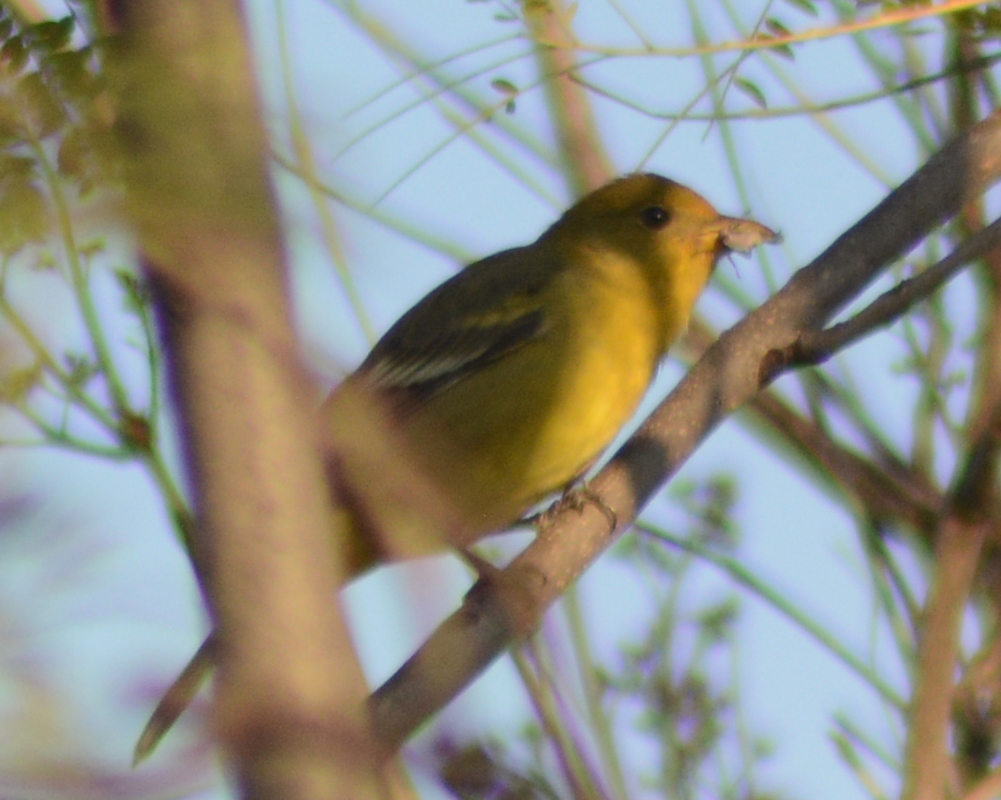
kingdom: Animalia
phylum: Chordata
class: Aves
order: Passeriformes
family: Cardinalidae
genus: Piranga
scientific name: Piranga ludoviciana
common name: Western tanager
